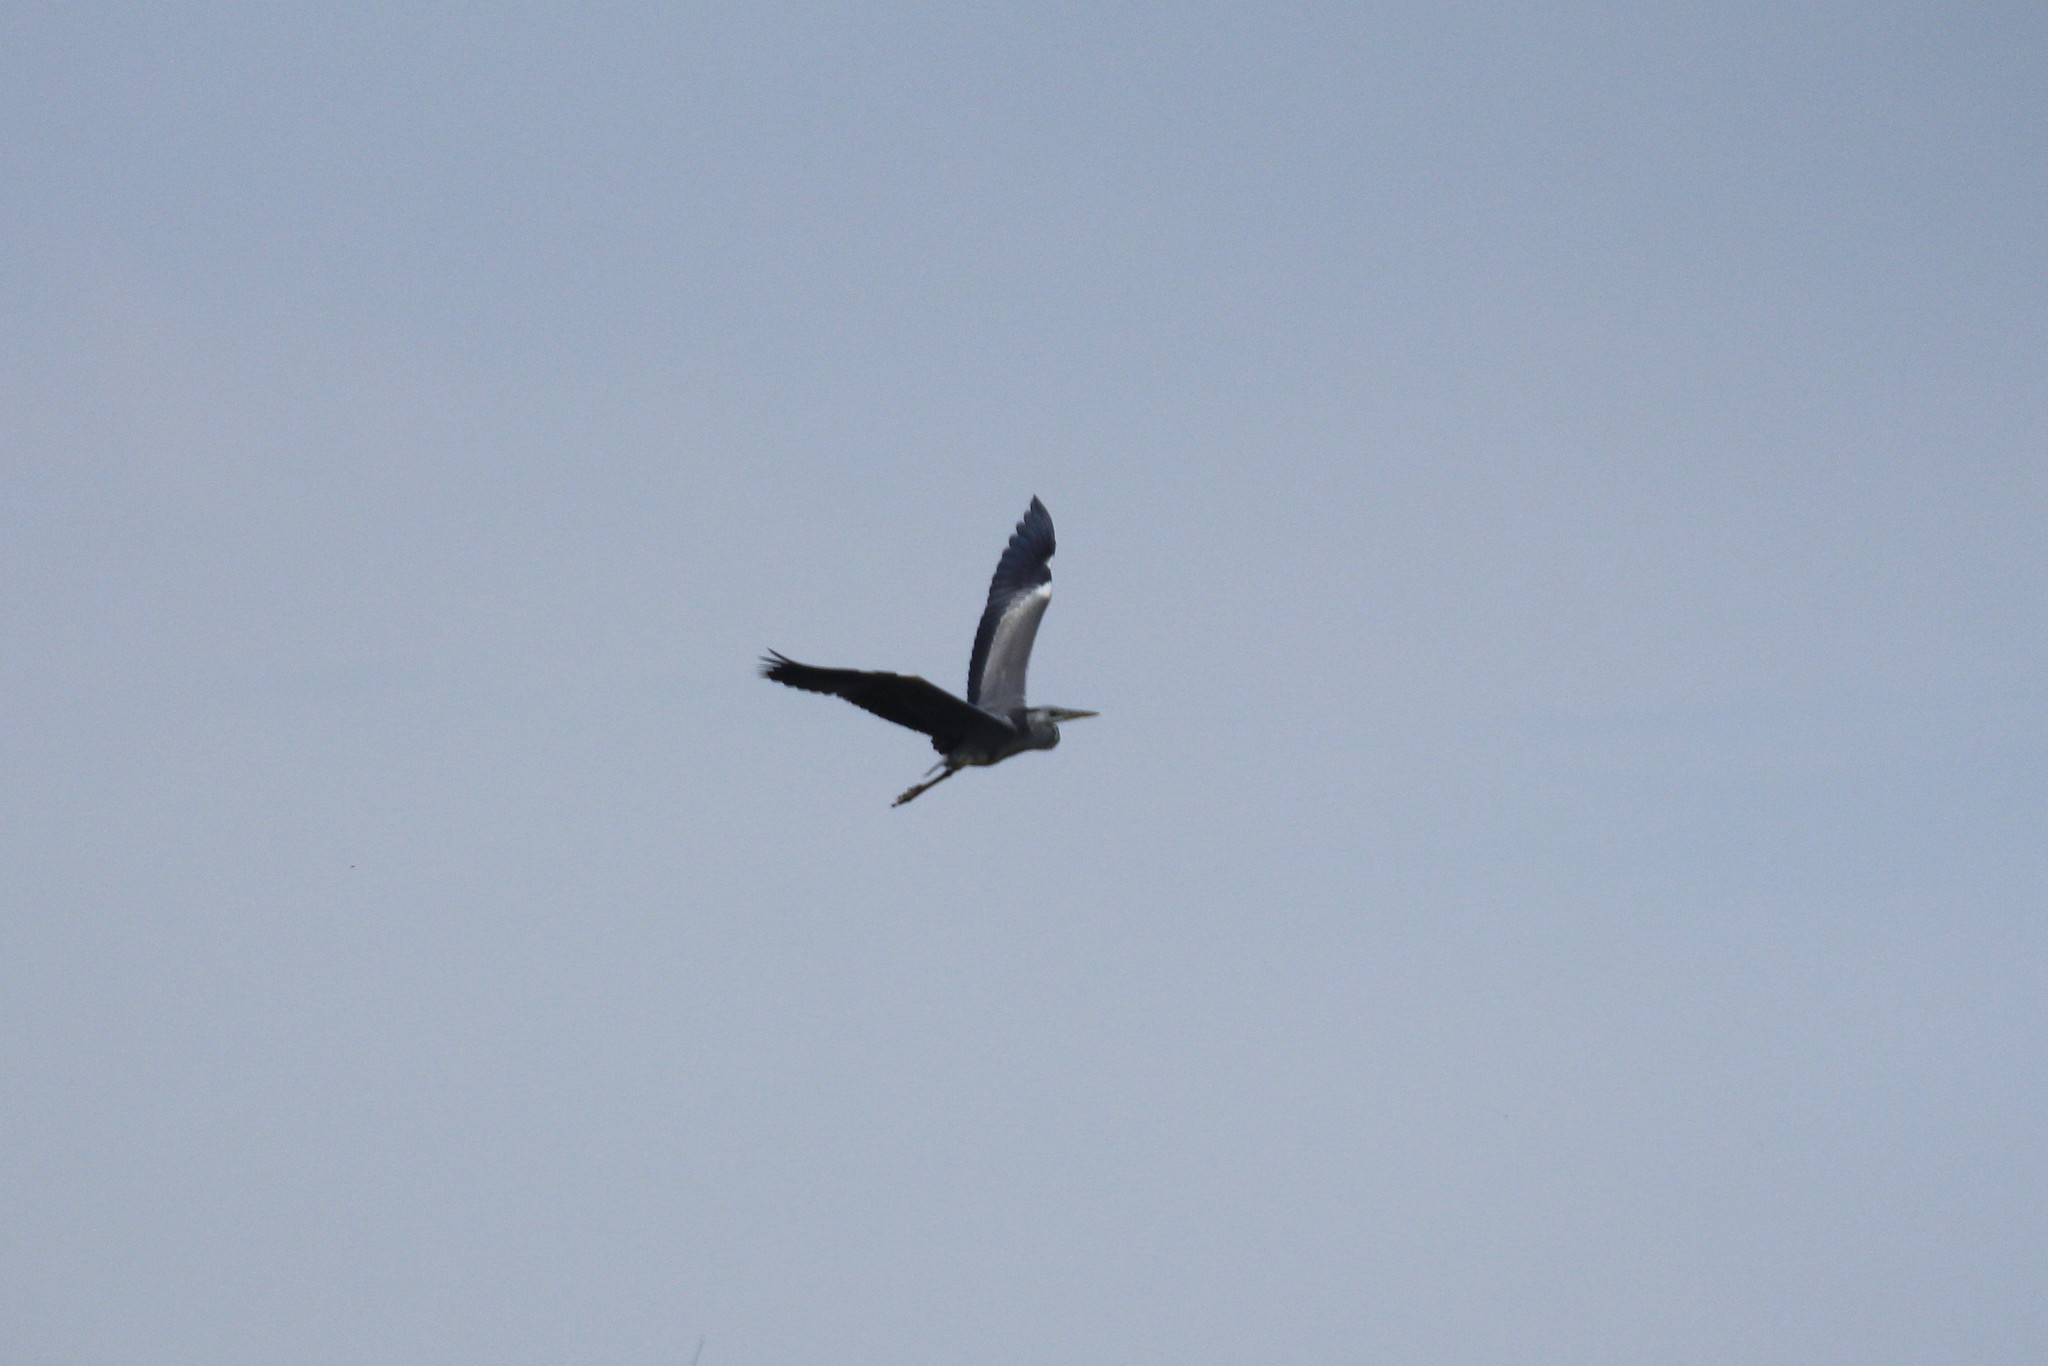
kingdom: Animalia
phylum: Chordata
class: Aves
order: Pelecaniformes
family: Ardeidae
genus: Ardea
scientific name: Ardea cinerea
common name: Grey heron
